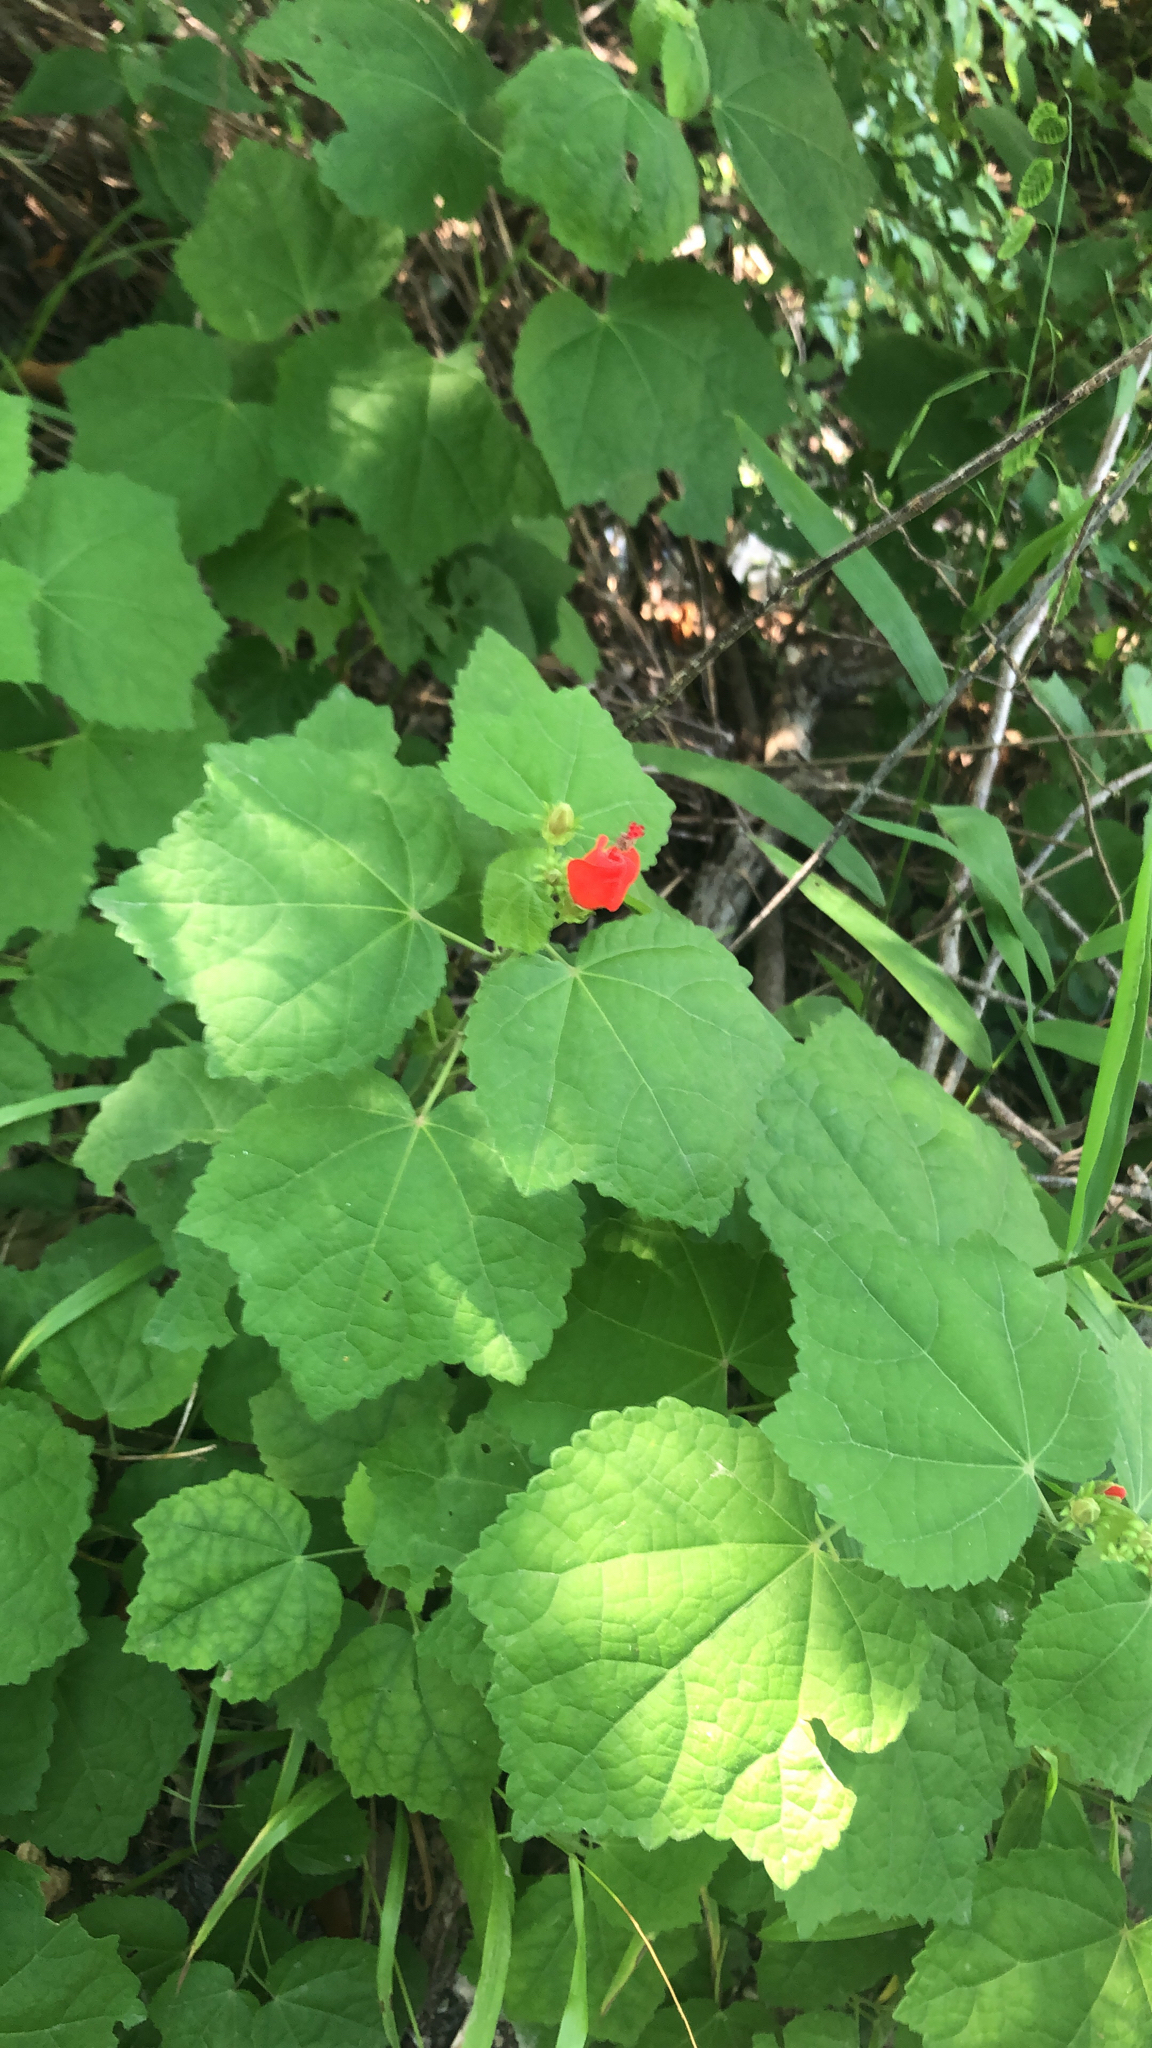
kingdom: Plantae
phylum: Tracheophyta
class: Magnoliopsida
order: Malvales
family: Malvaceae
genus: Malvaviscus
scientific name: Malvaviscus arboreus
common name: Wax mallow
